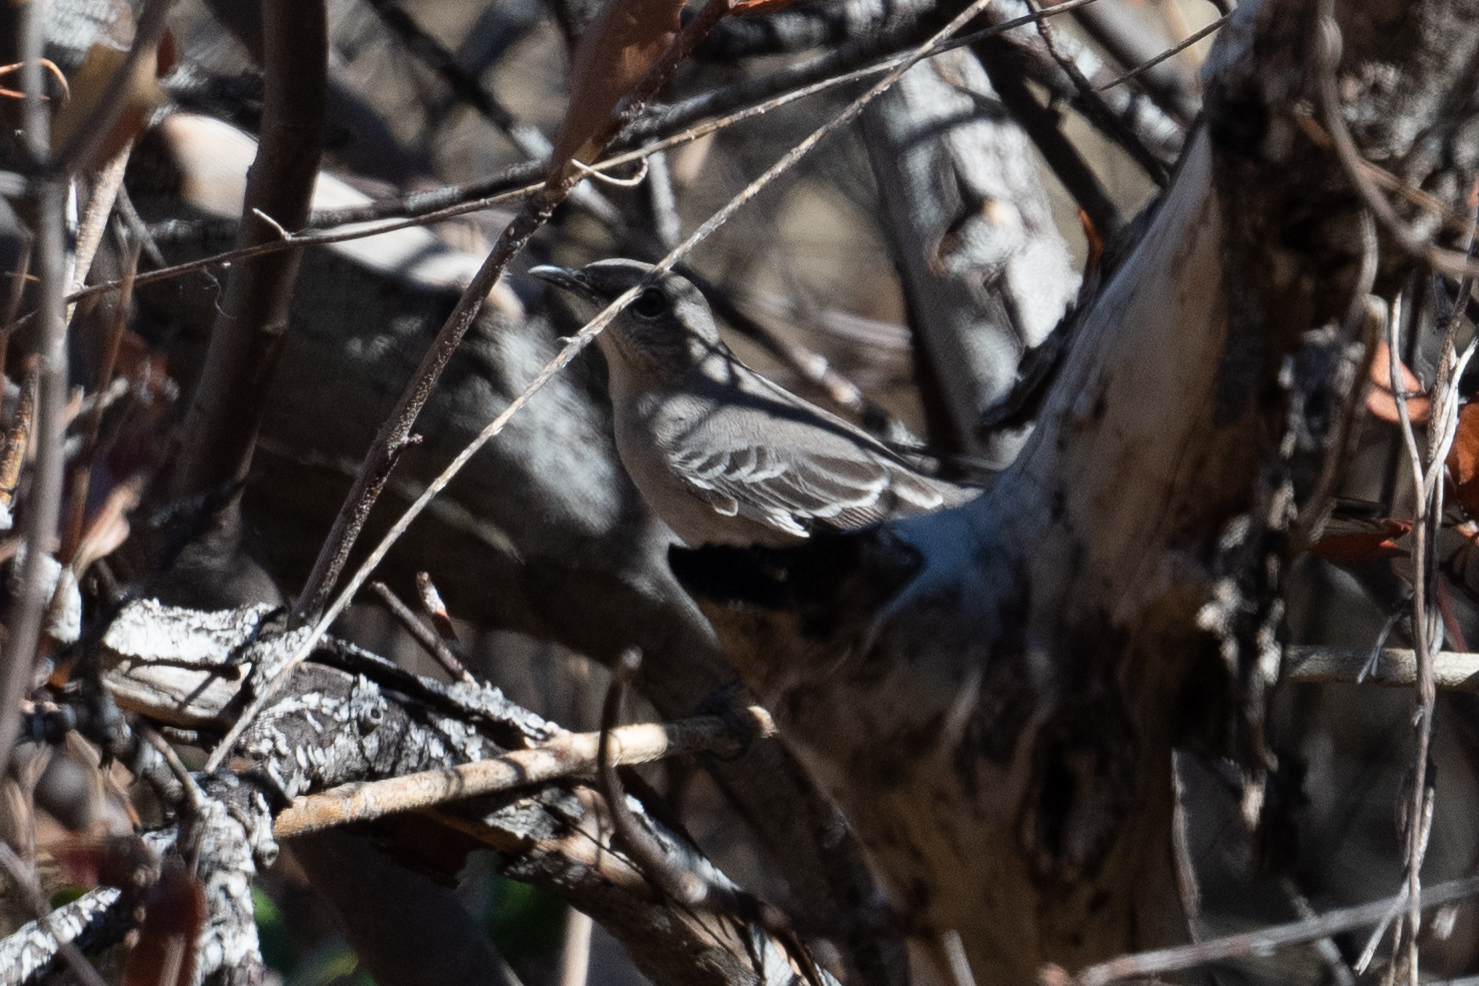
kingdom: Animalia
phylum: Chordata
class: Aves
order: Passeriformes
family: Mimidae
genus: Mimus
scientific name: Mimus polyglottos
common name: Northern mockingbird
